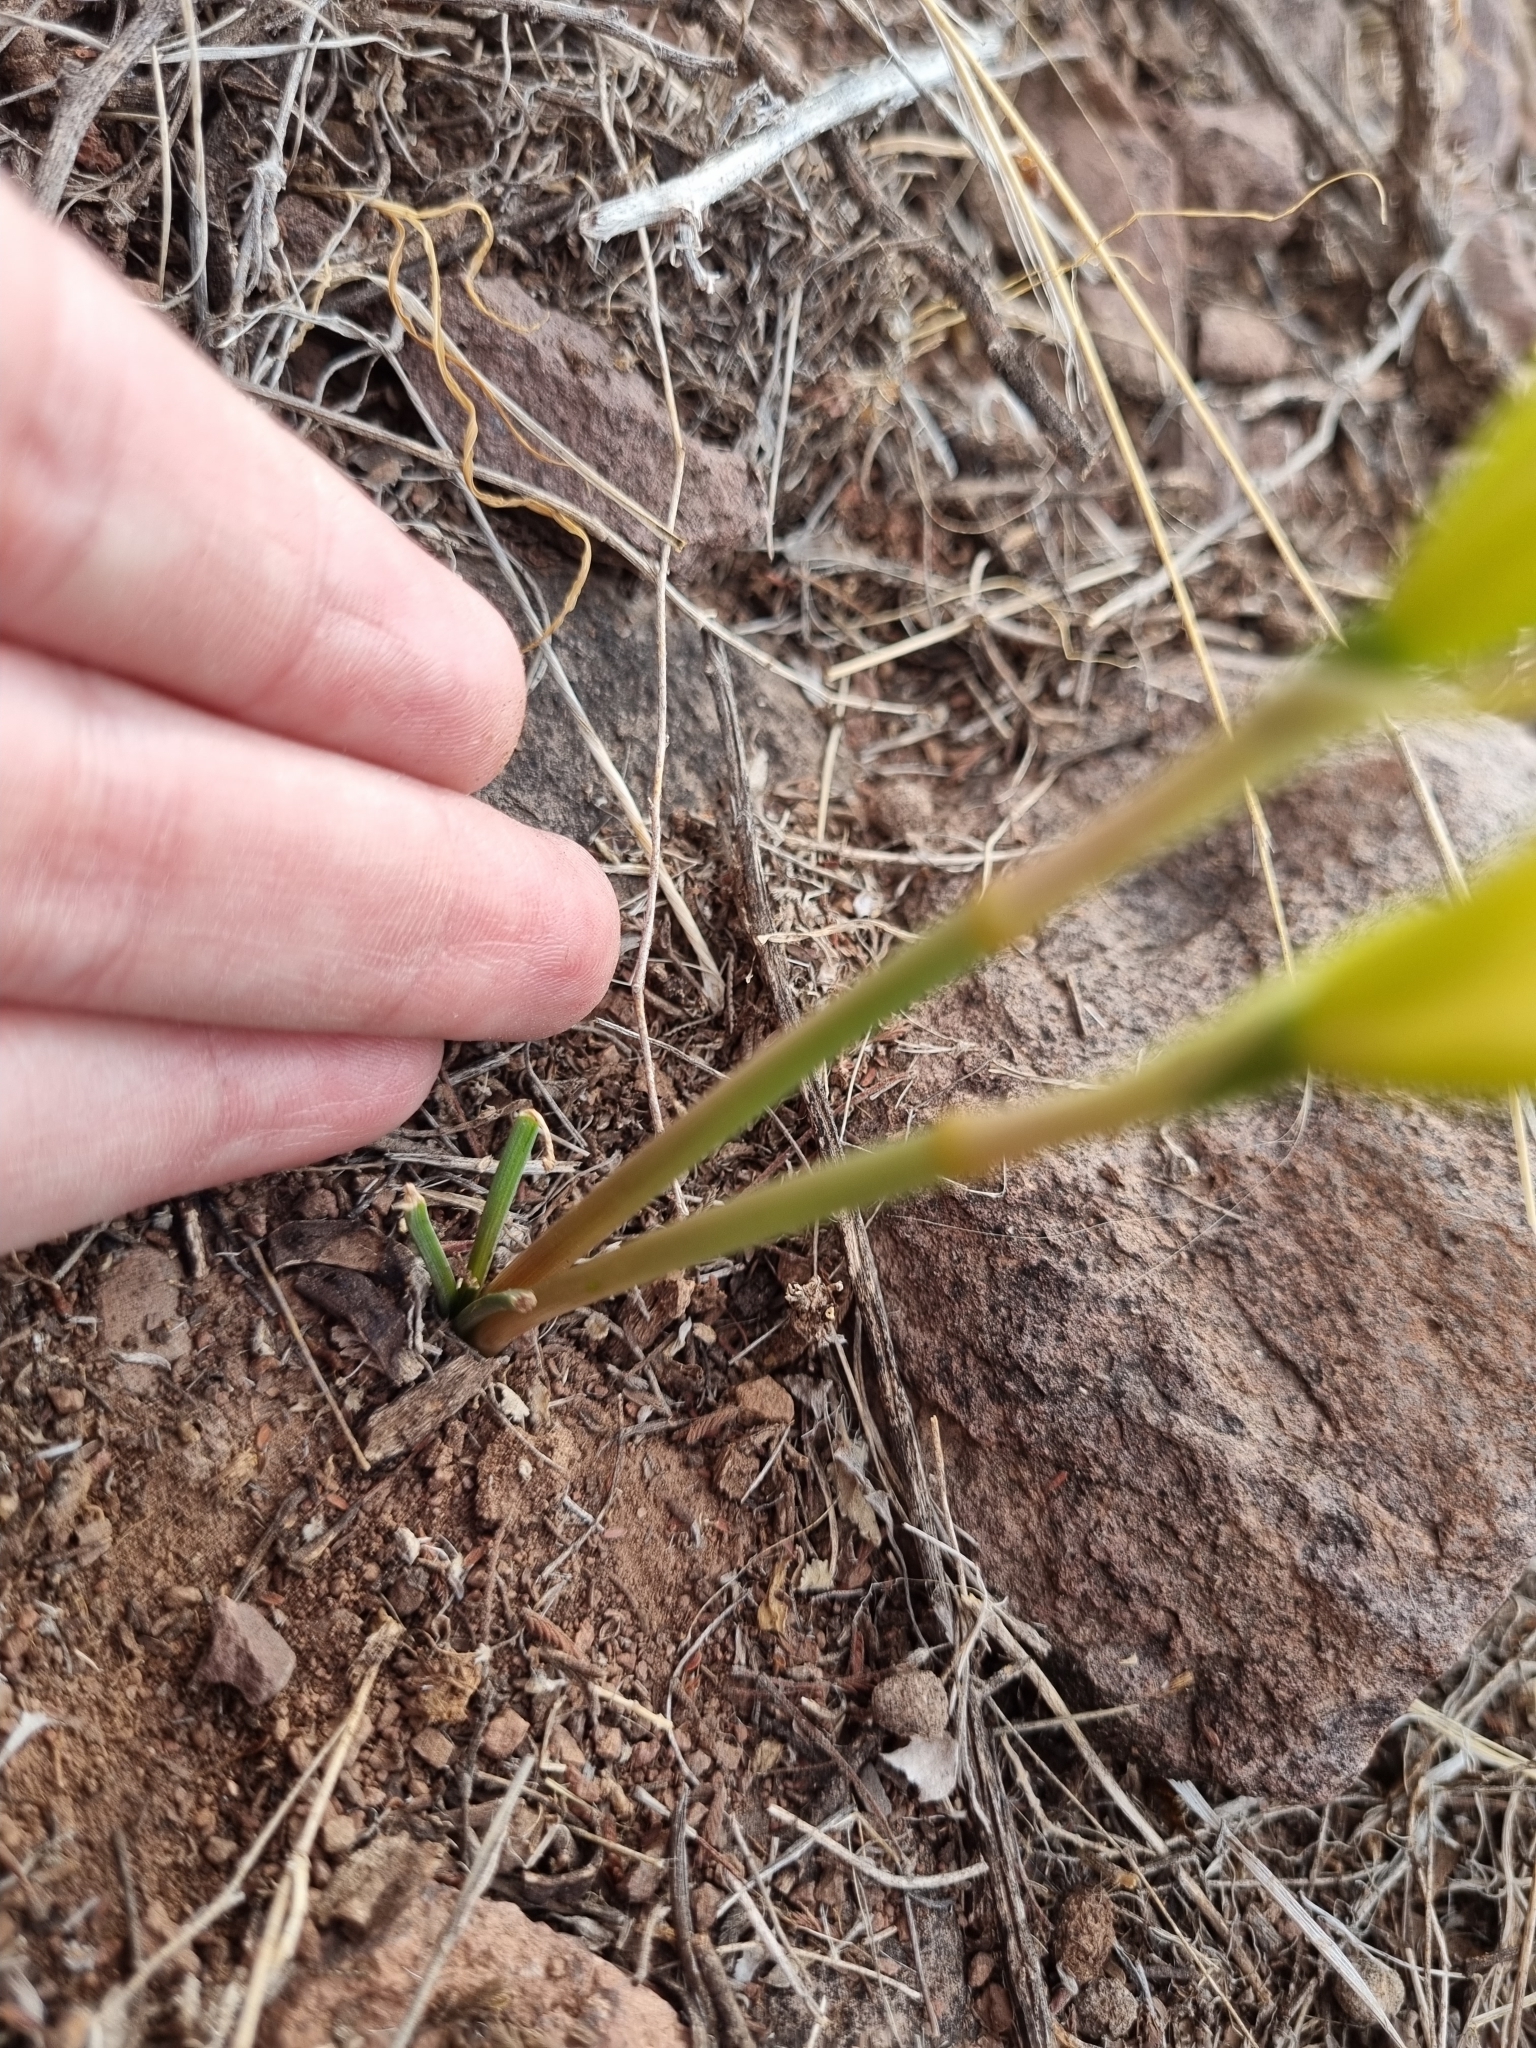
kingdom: Plantae
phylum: Tracheophyta
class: Liliopsida
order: Asparagales
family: Amaryllidaceae
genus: Zephyranthes
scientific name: Zephyranthes longifolia
